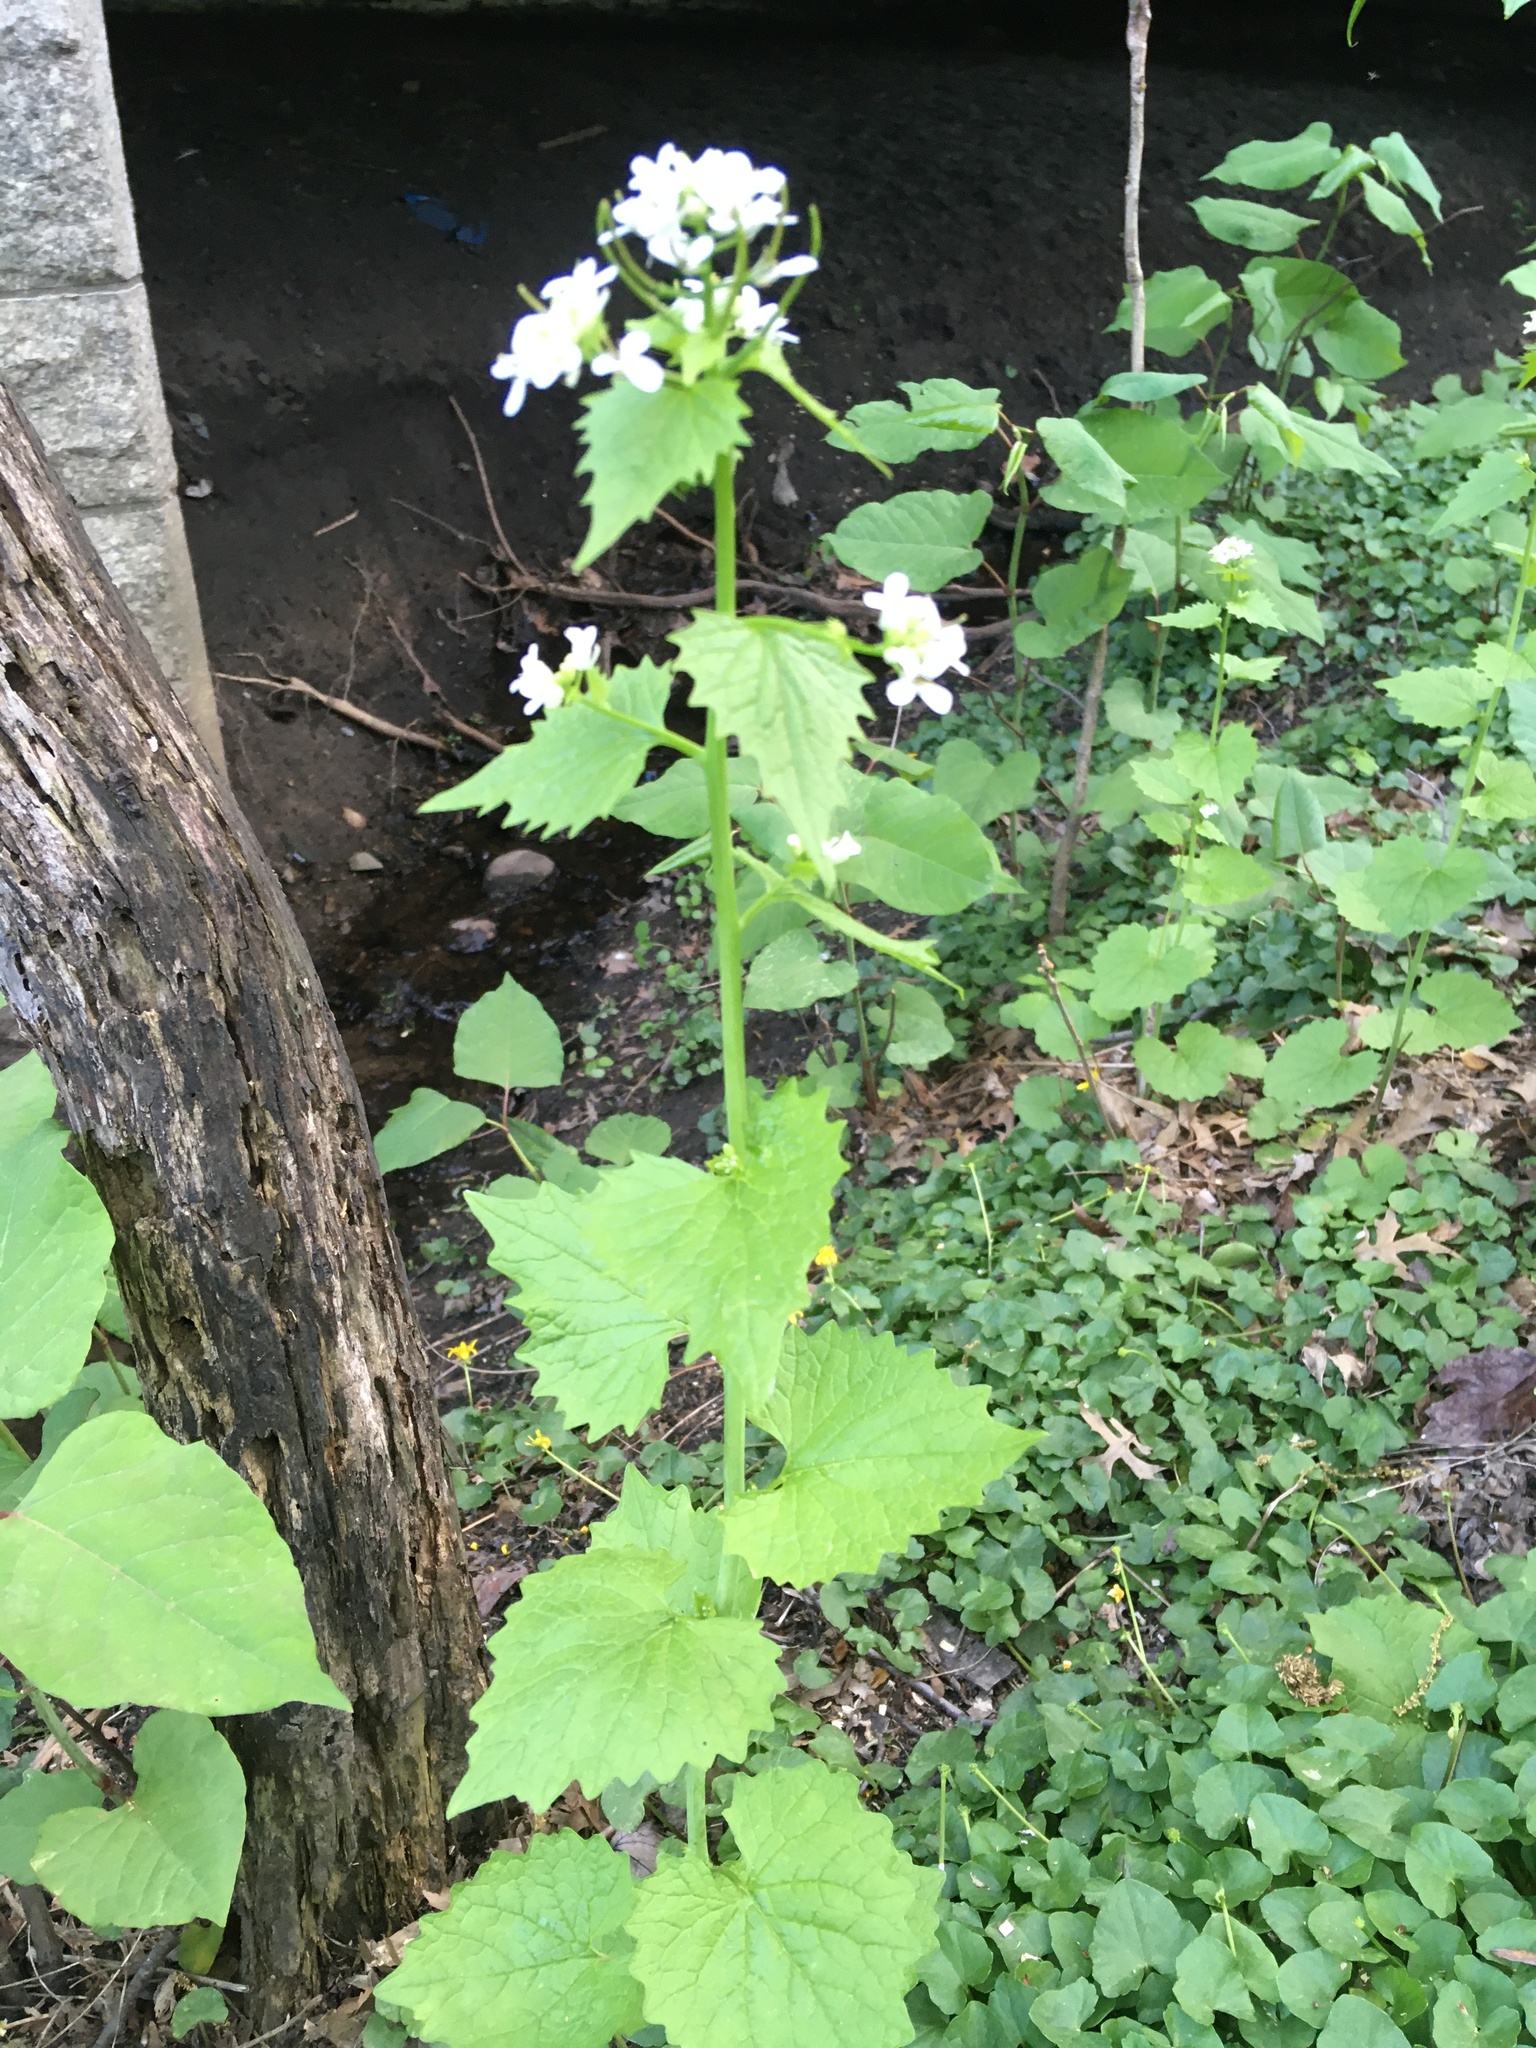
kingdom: Plantae
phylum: Tracheophyta
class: Magnoliopsida
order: Brassicales
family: Brassicaceae
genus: Alliaria
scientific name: Alliaria petiolata
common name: Garlic mustard
